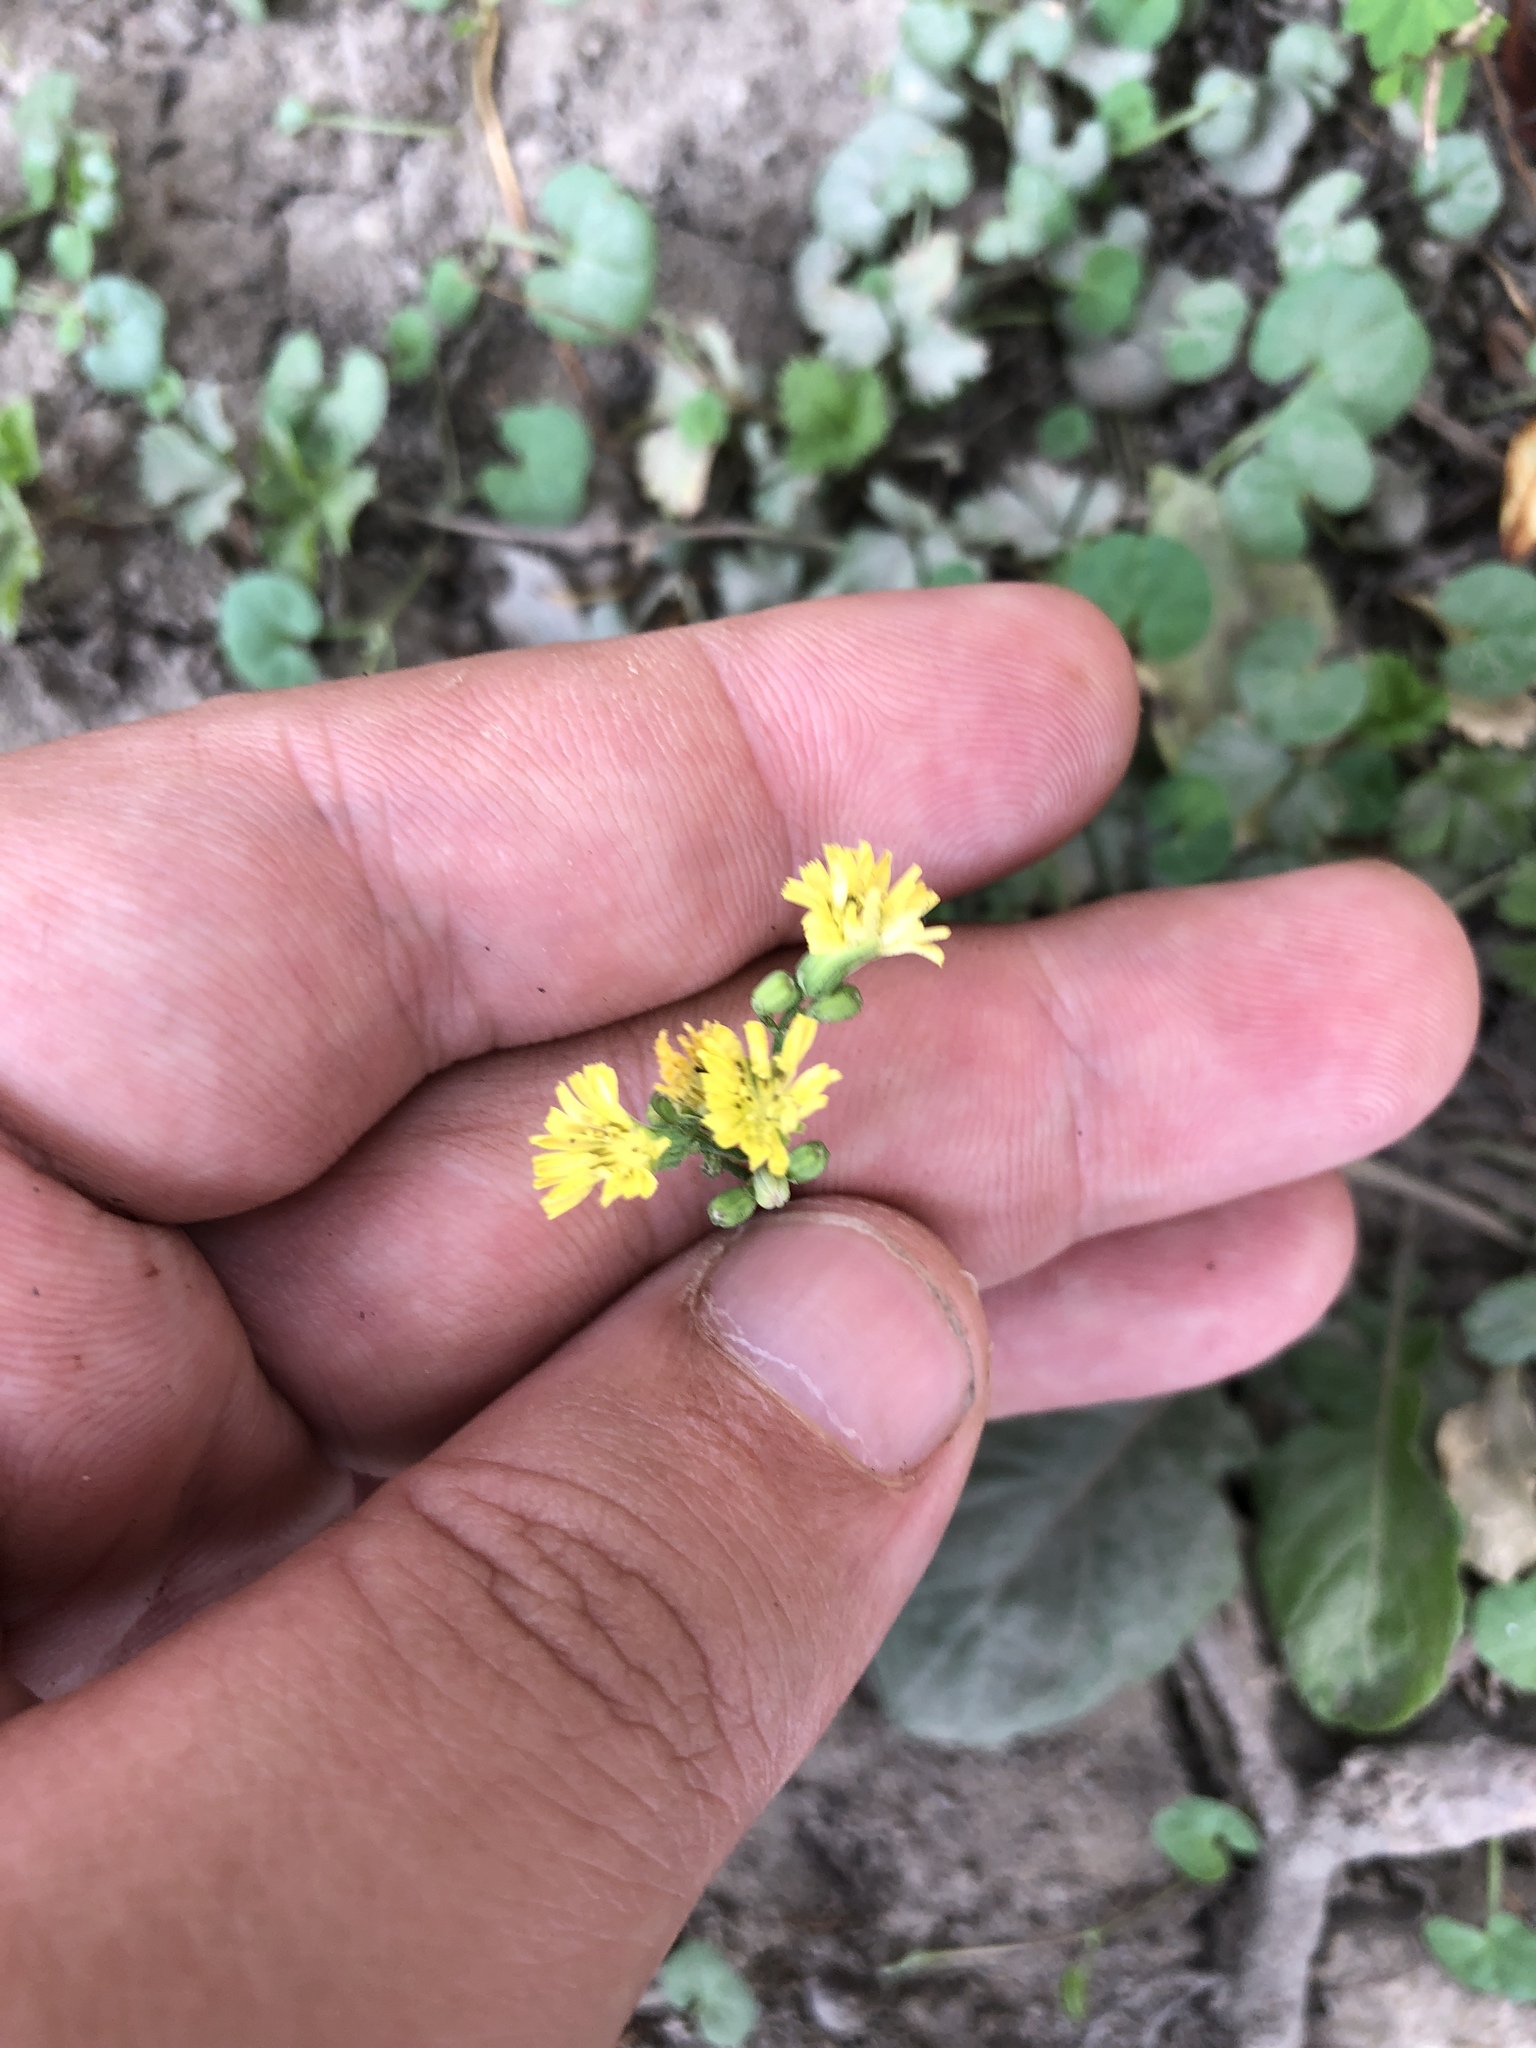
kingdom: Plantae
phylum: Tracheophyta
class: Magnoliopsida
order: Asterales
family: Asteraceae
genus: Youngia
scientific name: Youngia japonica
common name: Oriental false hawksbeard
